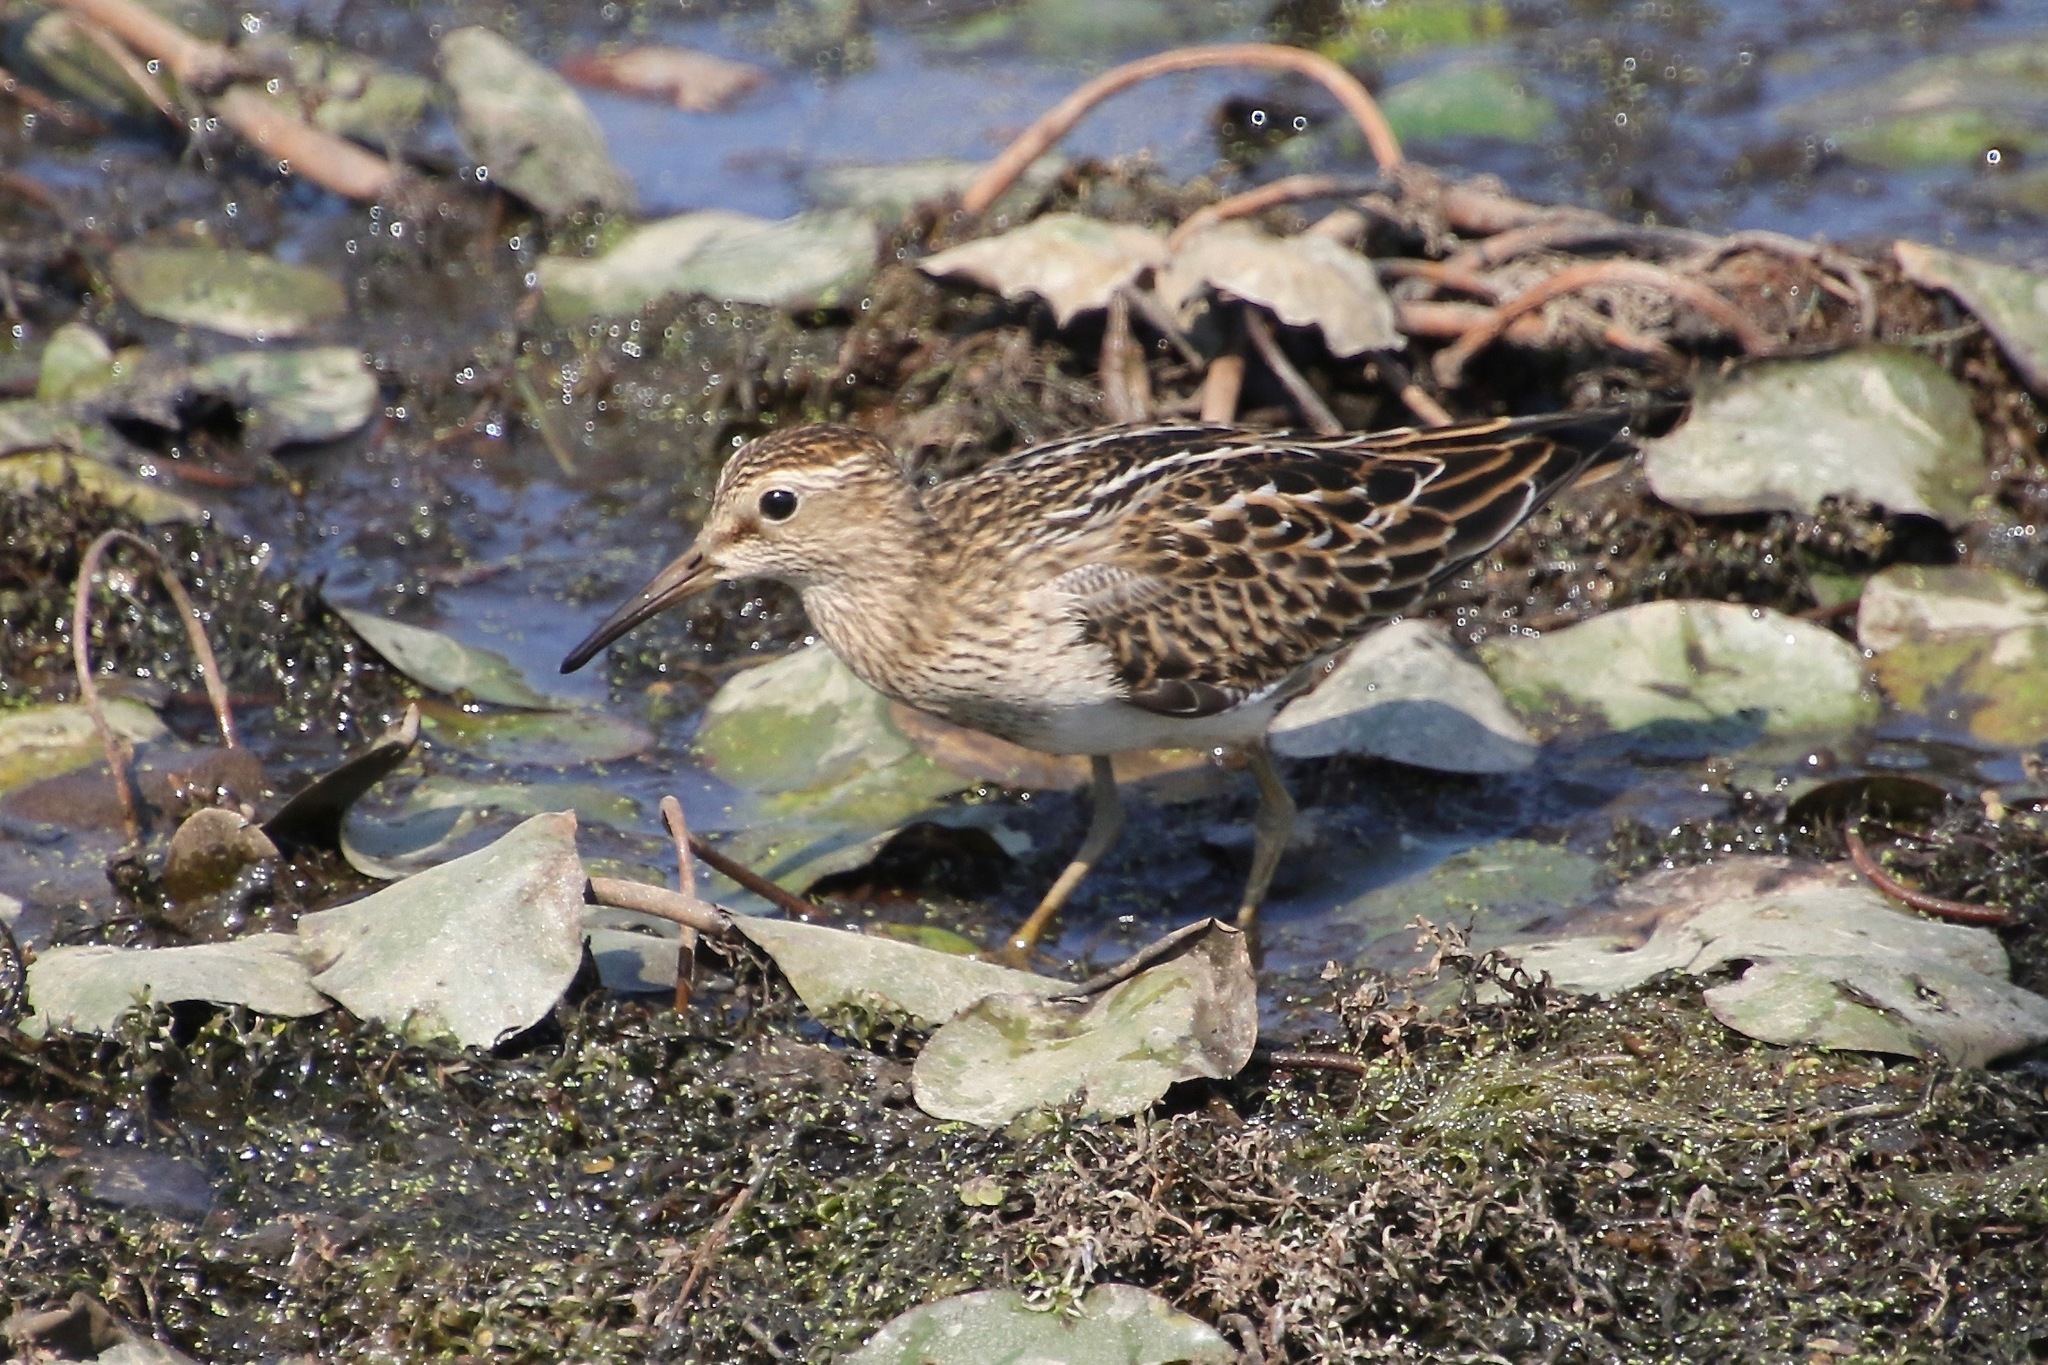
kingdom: Animalia
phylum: Chordata
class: Aves
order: Charadriiformes
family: Scolopacidae
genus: Calidris
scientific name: Calidris melanotos
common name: Pectoral sandpiper
